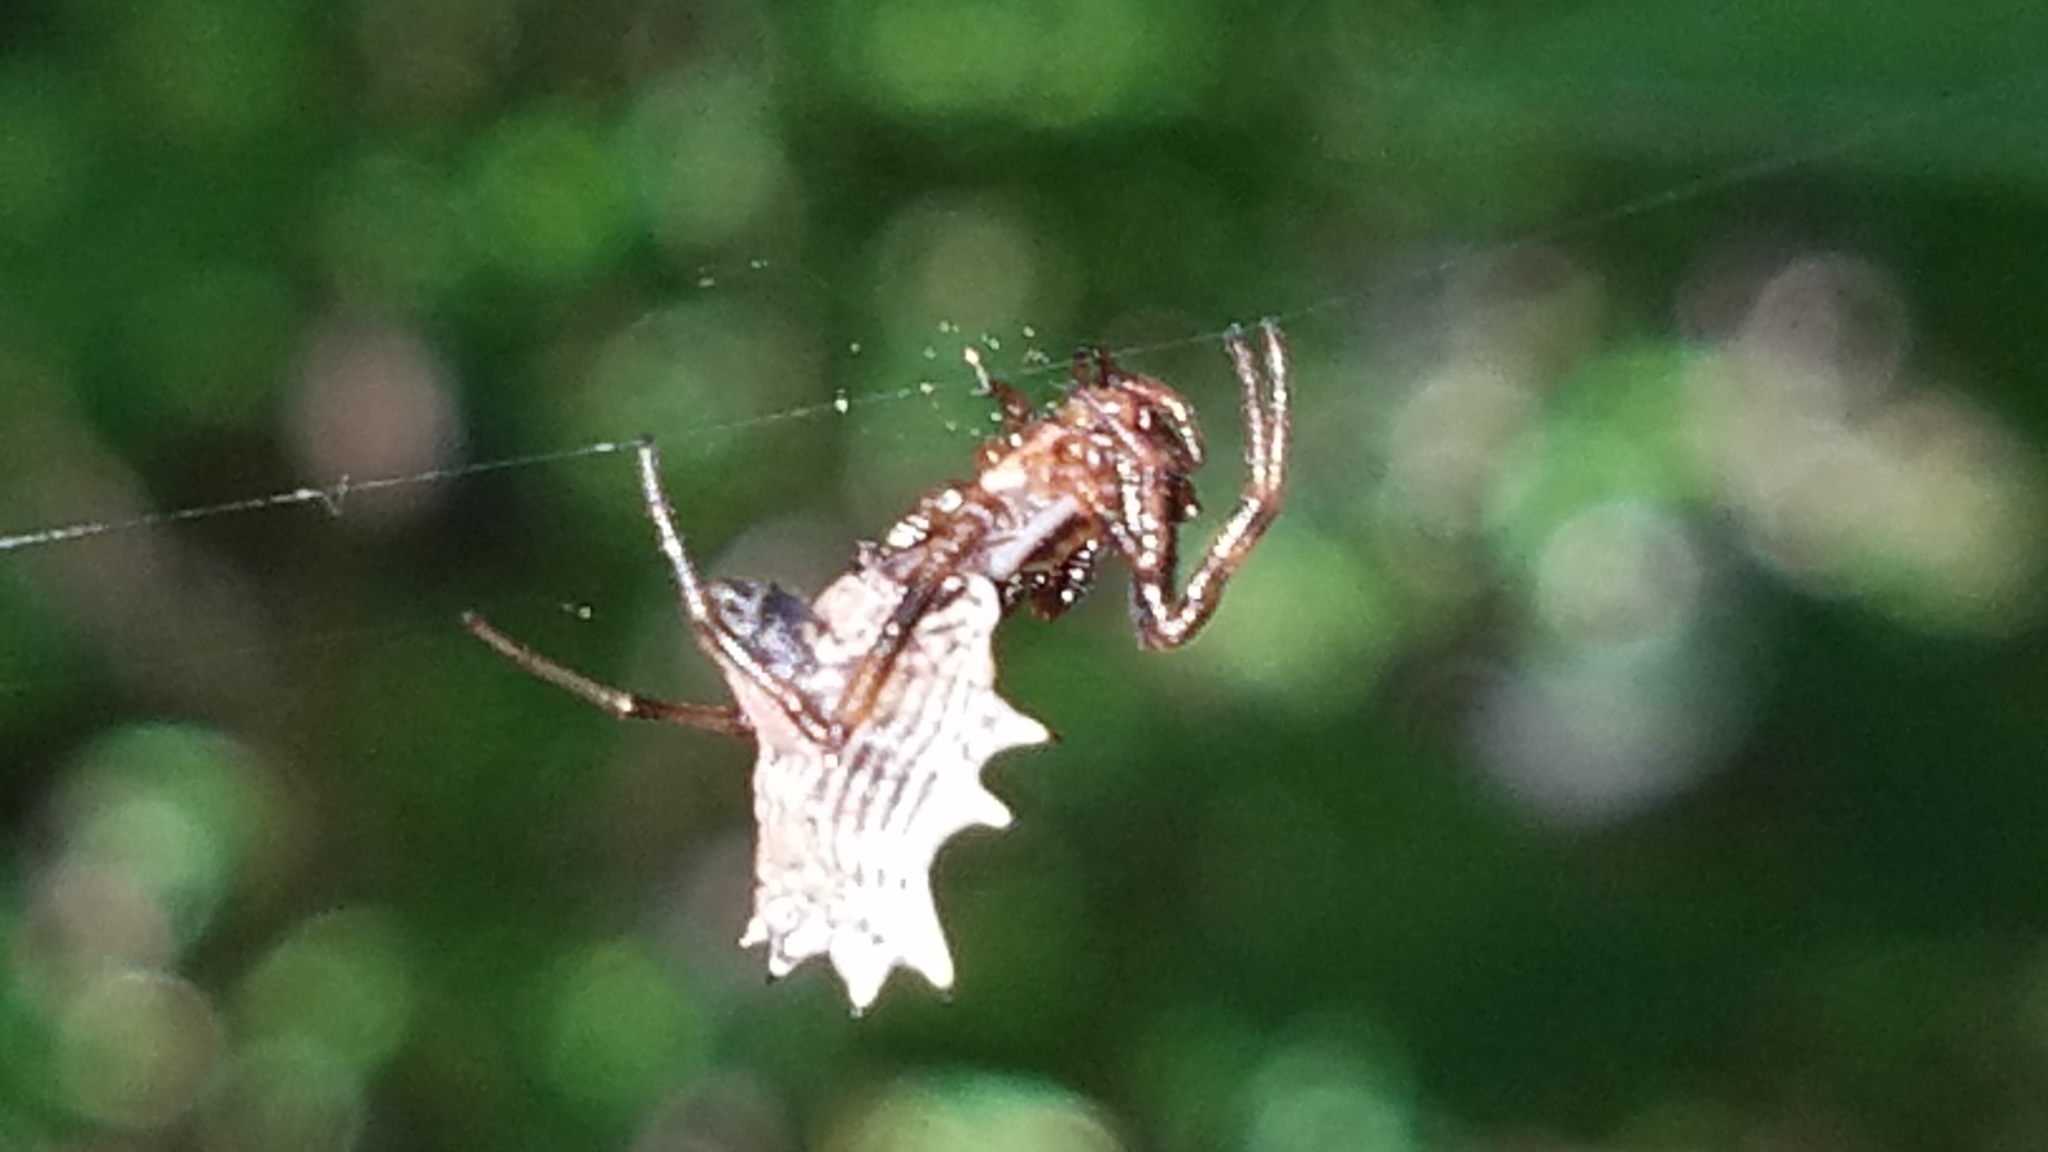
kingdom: Animalia
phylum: Arthropoda
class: Arachnida
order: Araneae
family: Araneidae
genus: Micrathena
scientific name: Micrathena gracilis
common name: Orb weavers
